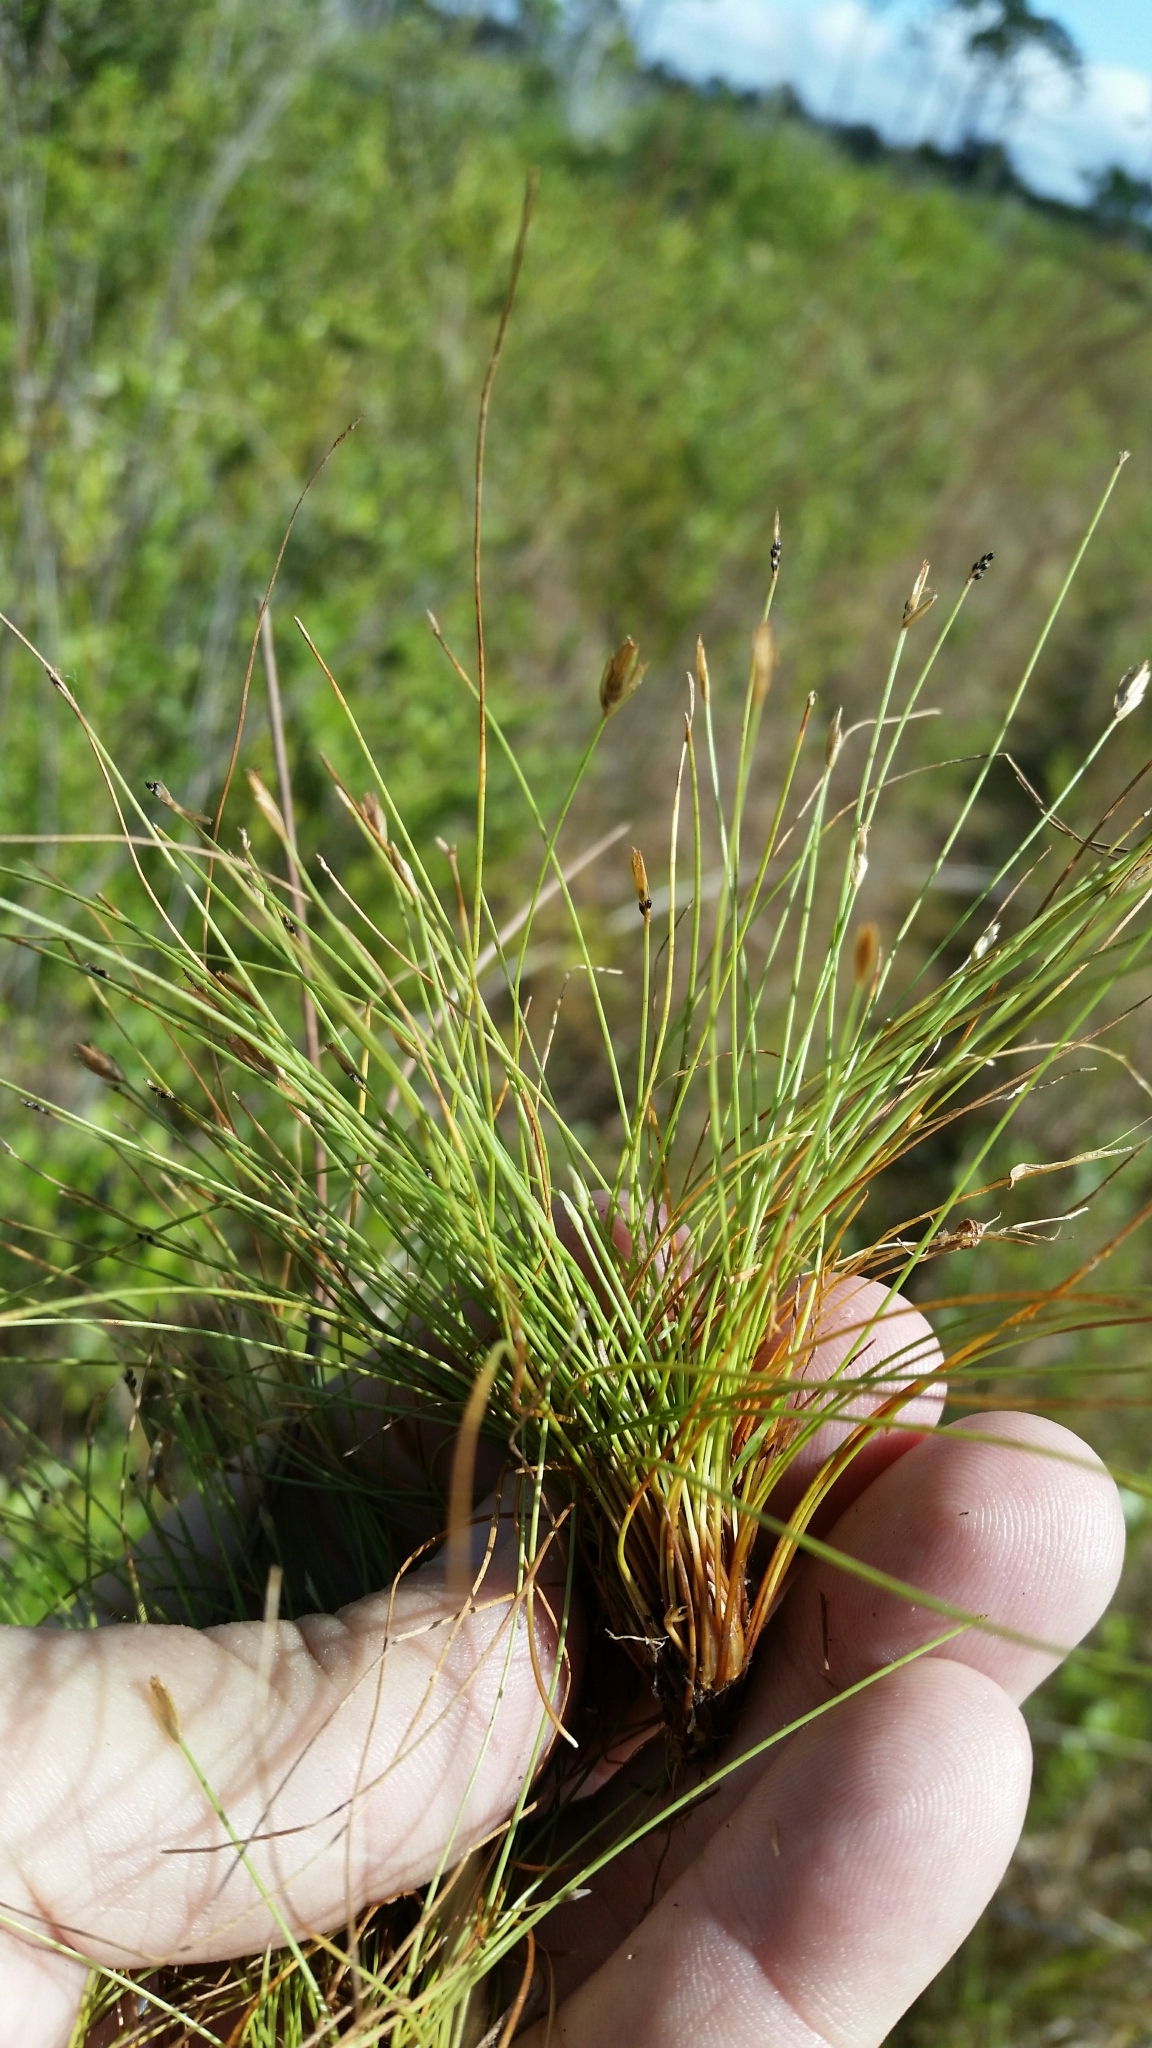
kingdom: Plantae
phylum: Tracheophyta
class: Liliopsida
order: Poales
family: Cyperaceae
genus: Eleocharis
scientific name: Eleocharis baldwinii
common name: Baldwin's spike-rush
